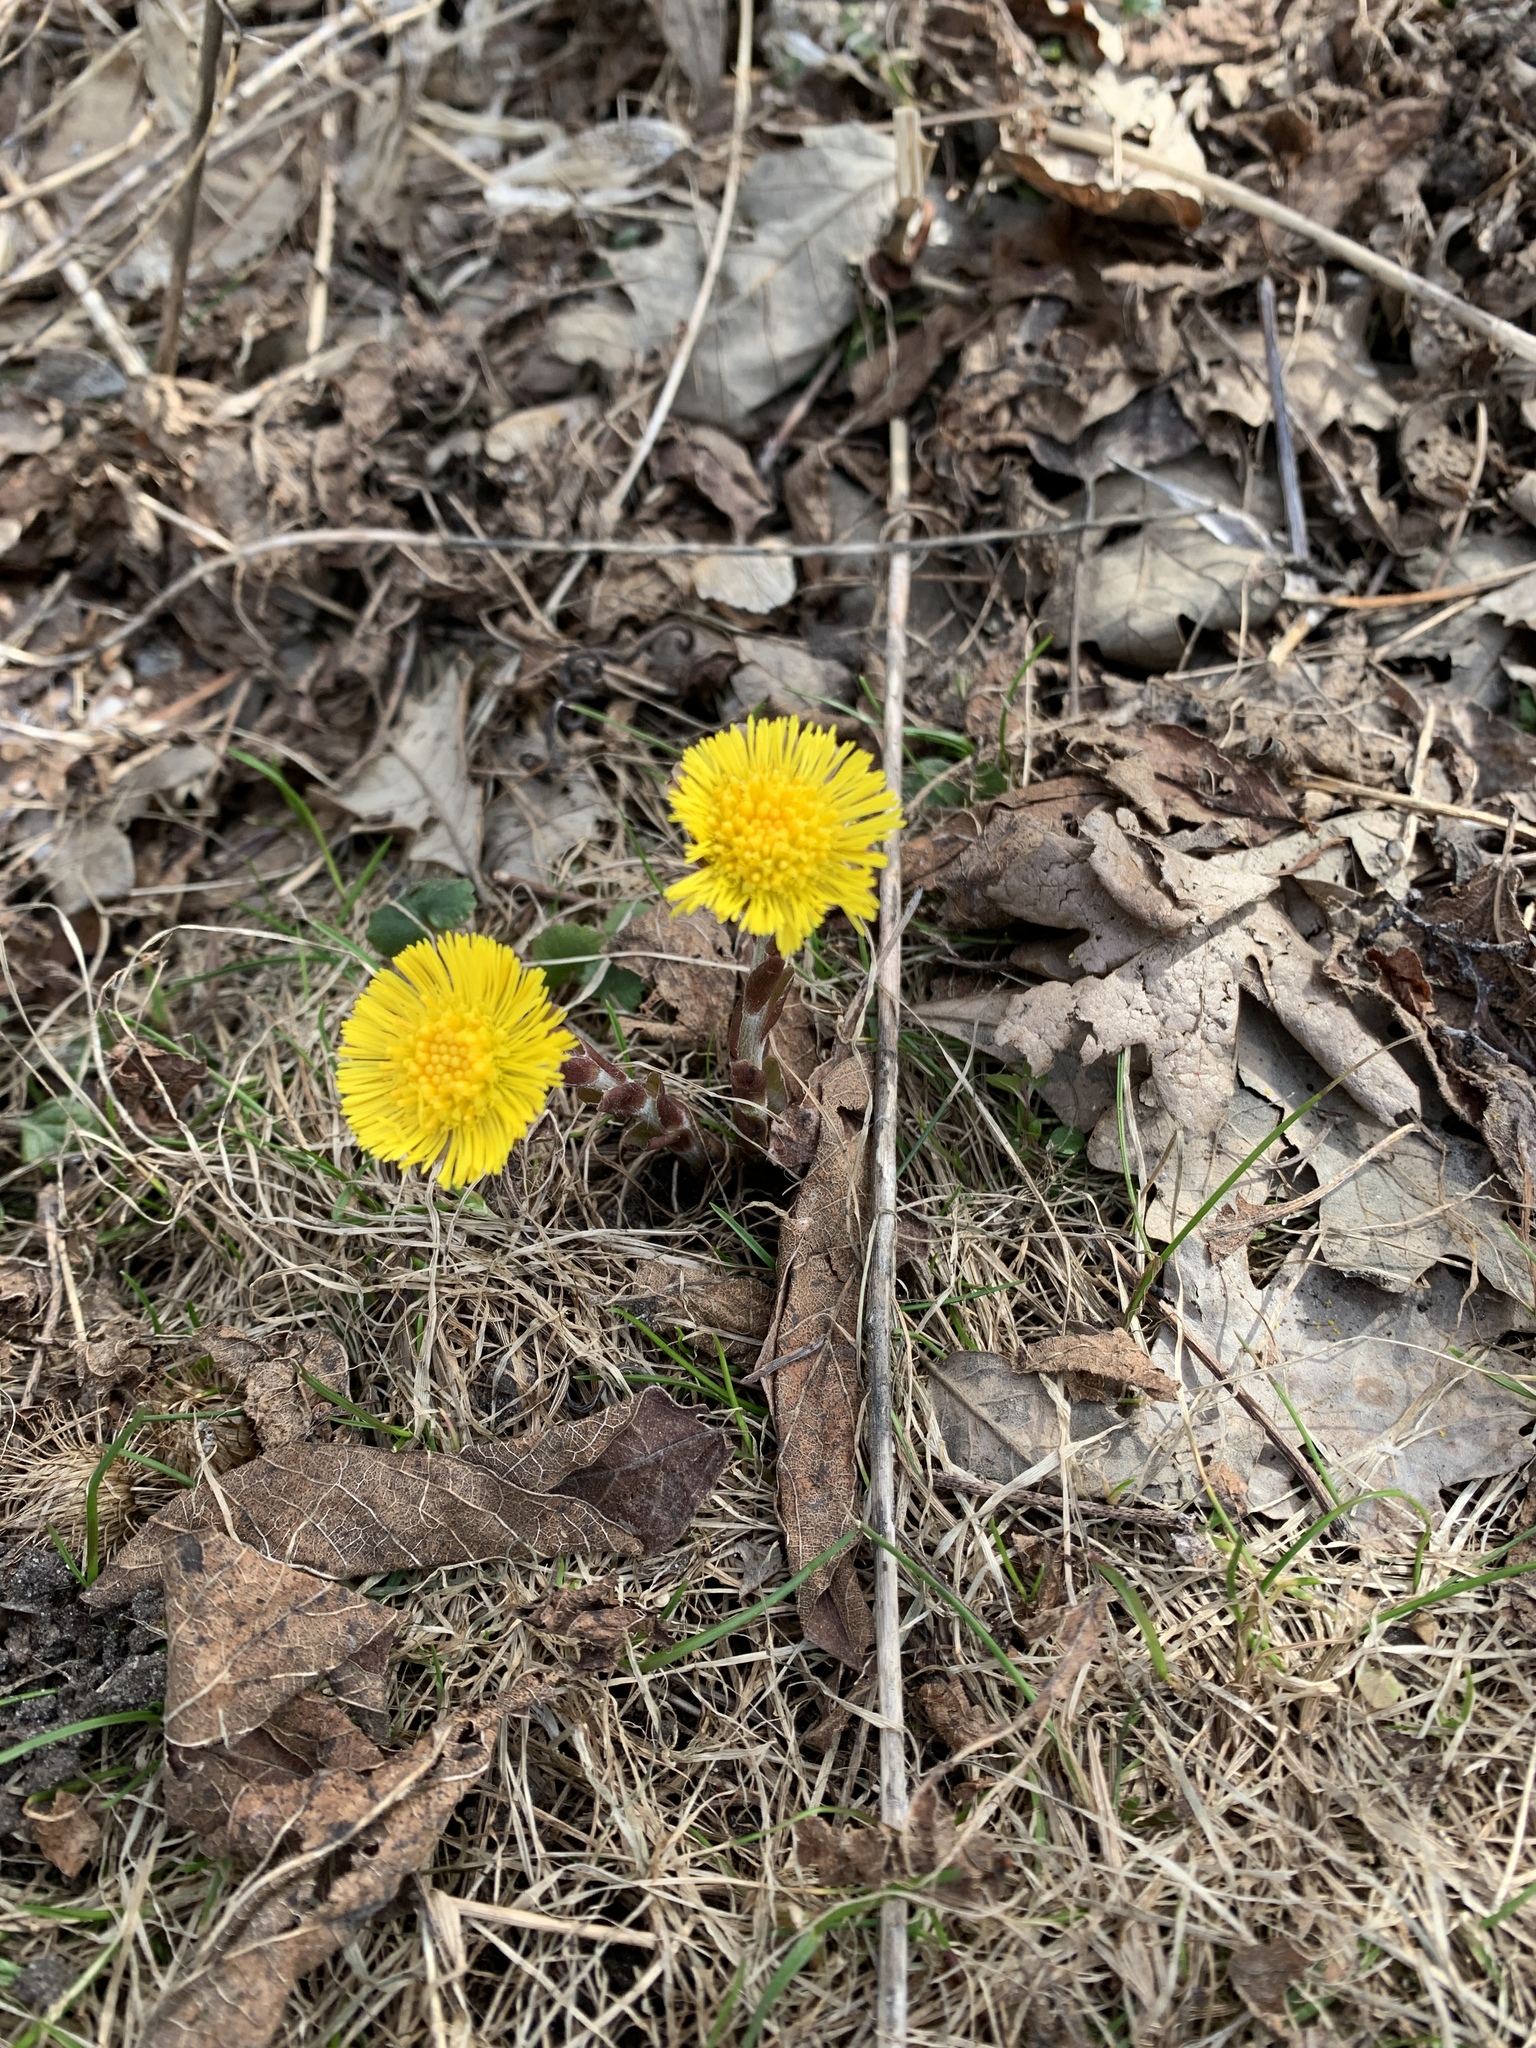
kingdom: Plantae
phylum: Tracheophyta
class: Magnoliopsida
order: Asterales
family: Asteraceae
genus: Tussilago
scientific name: Tussilago farfara
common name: Coltsfoot
